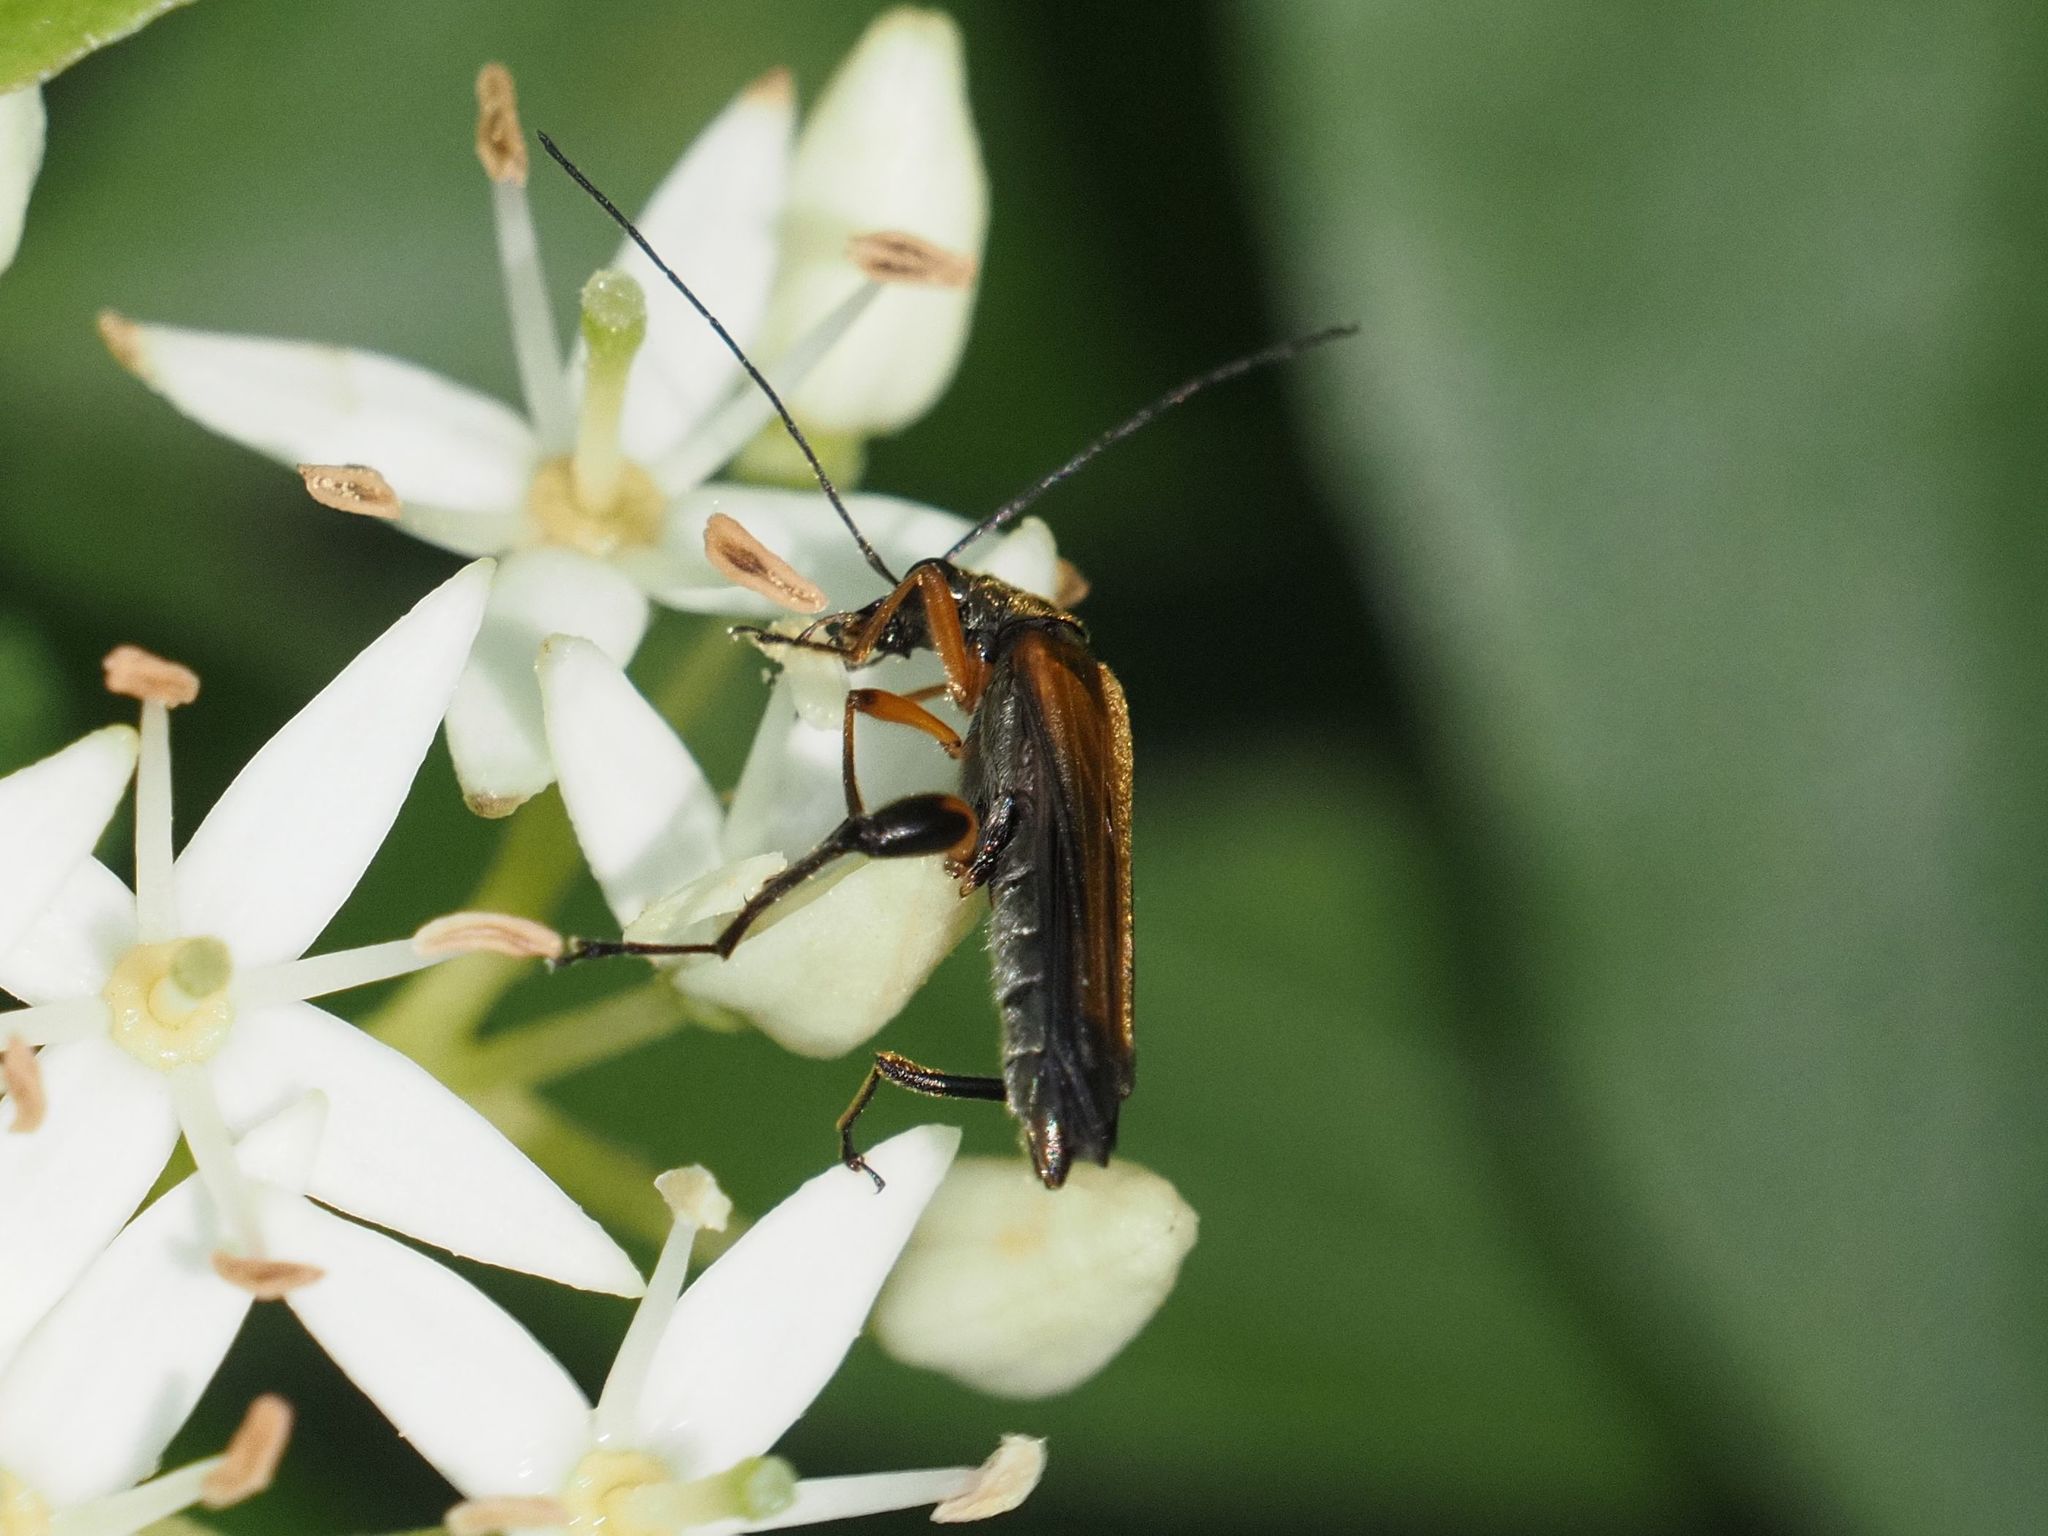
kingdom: Animalia
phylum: Arthropoda
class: Insecta
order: Coleoptera
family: Oedemeridae
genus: Oedemera
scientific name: Oedemera podagrariae
